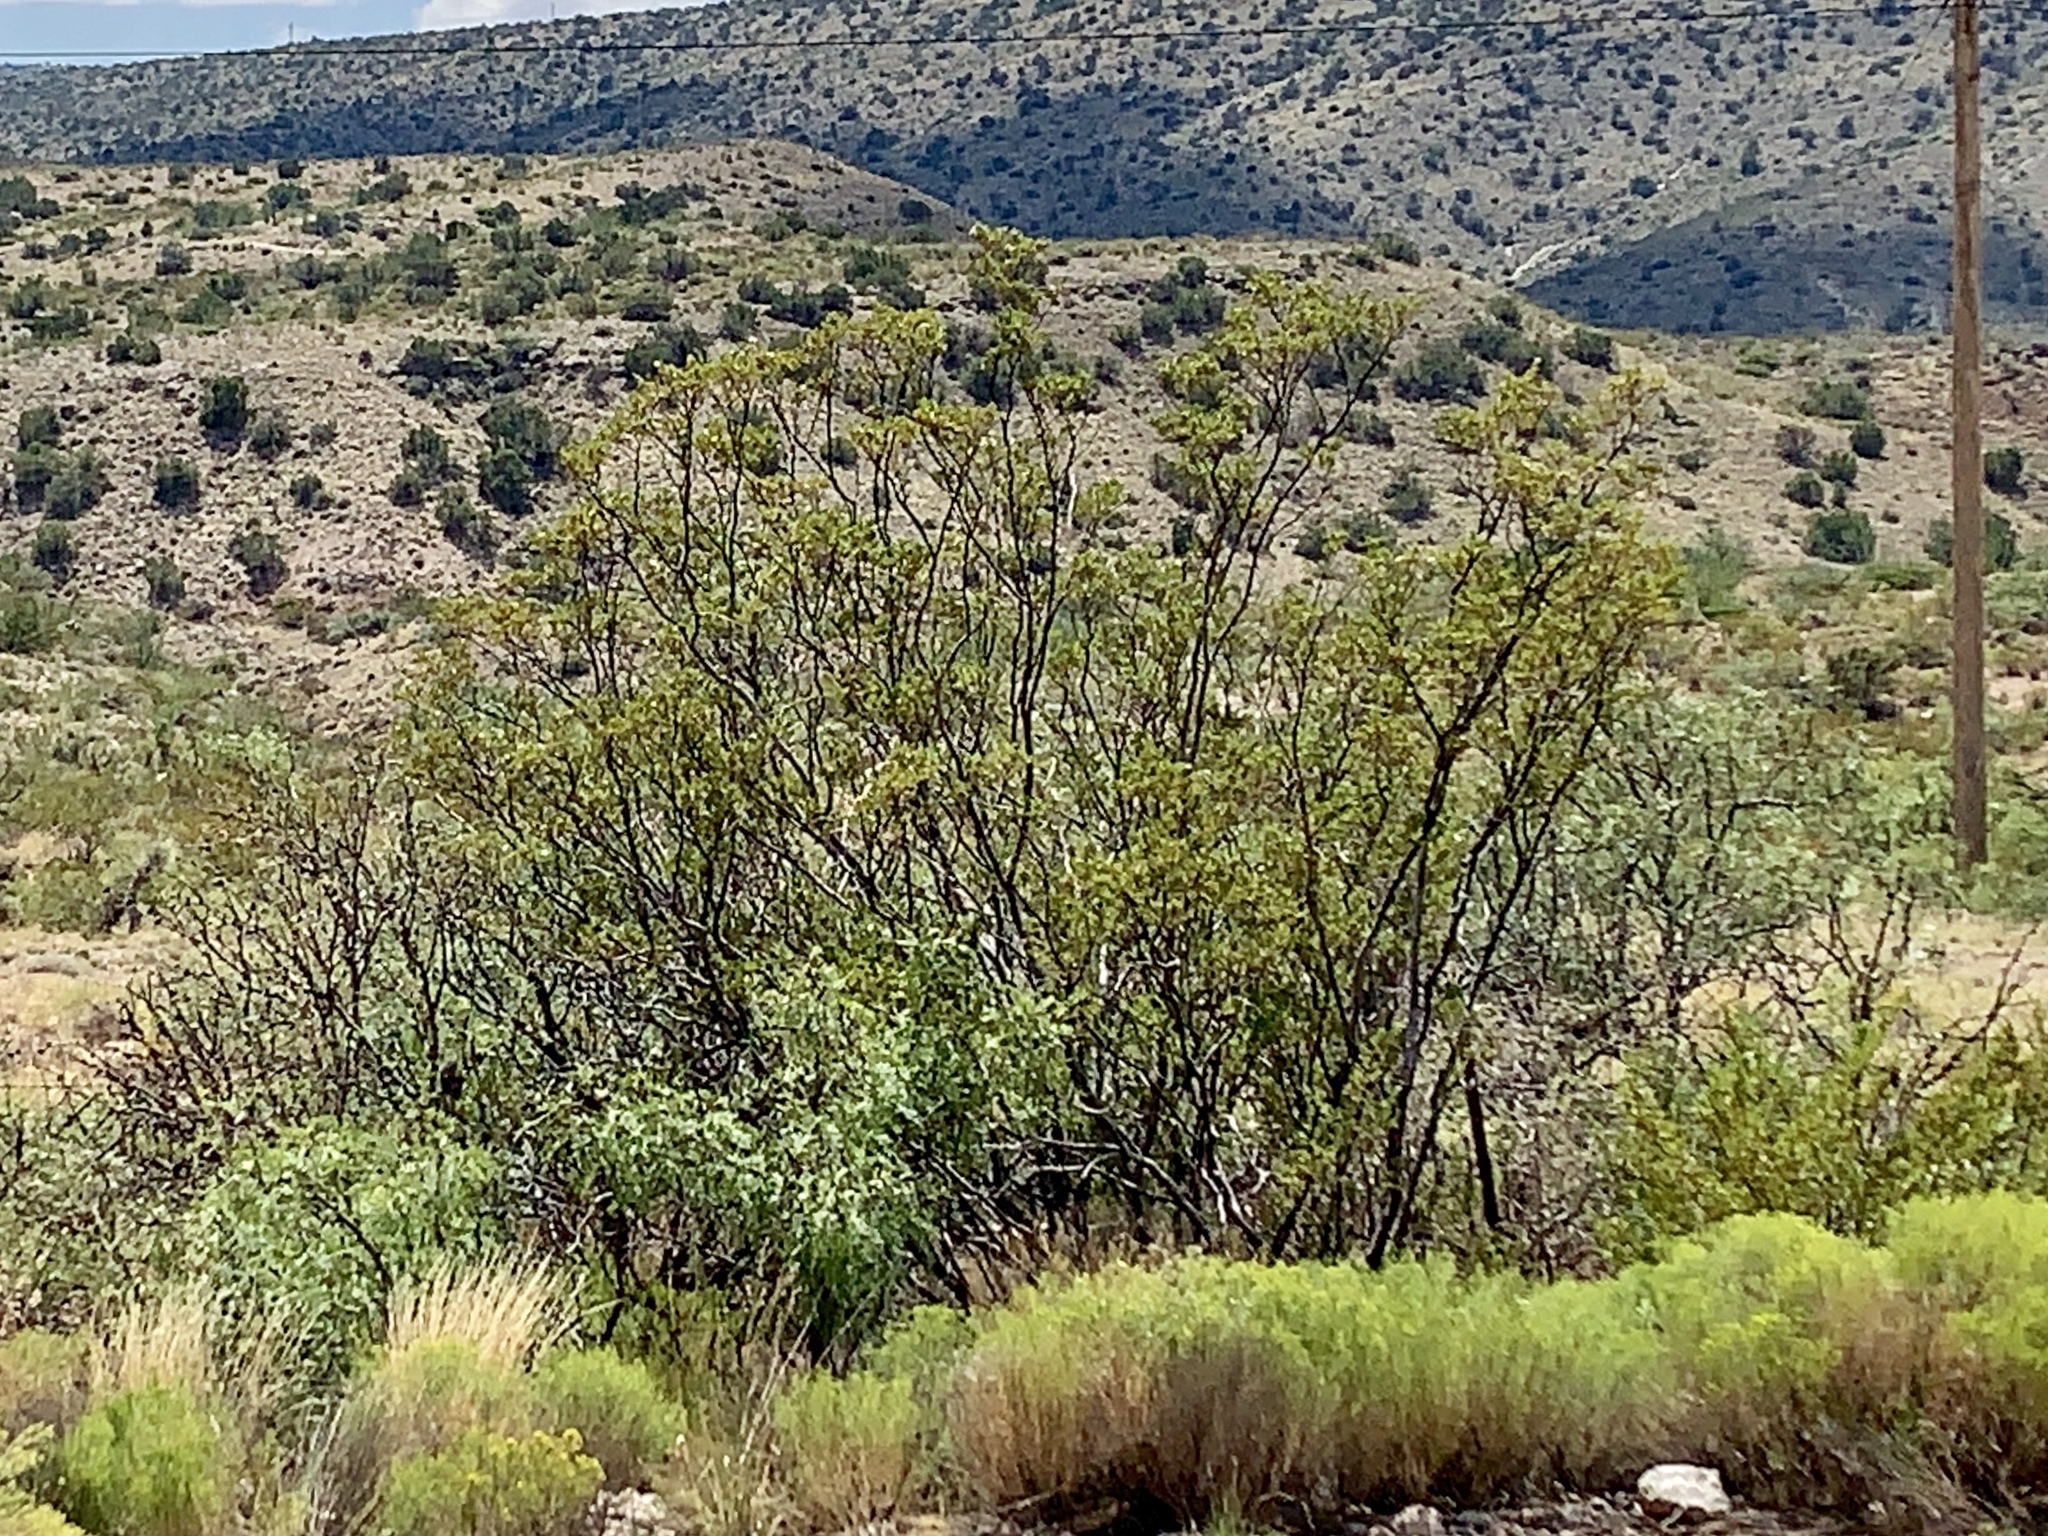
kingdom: Plantae
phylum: Tracheophyta
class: Magnoliopsida
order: Zygophyllales
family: Zygophyllaceae
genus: Larrea
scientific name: Larrea tridentata
